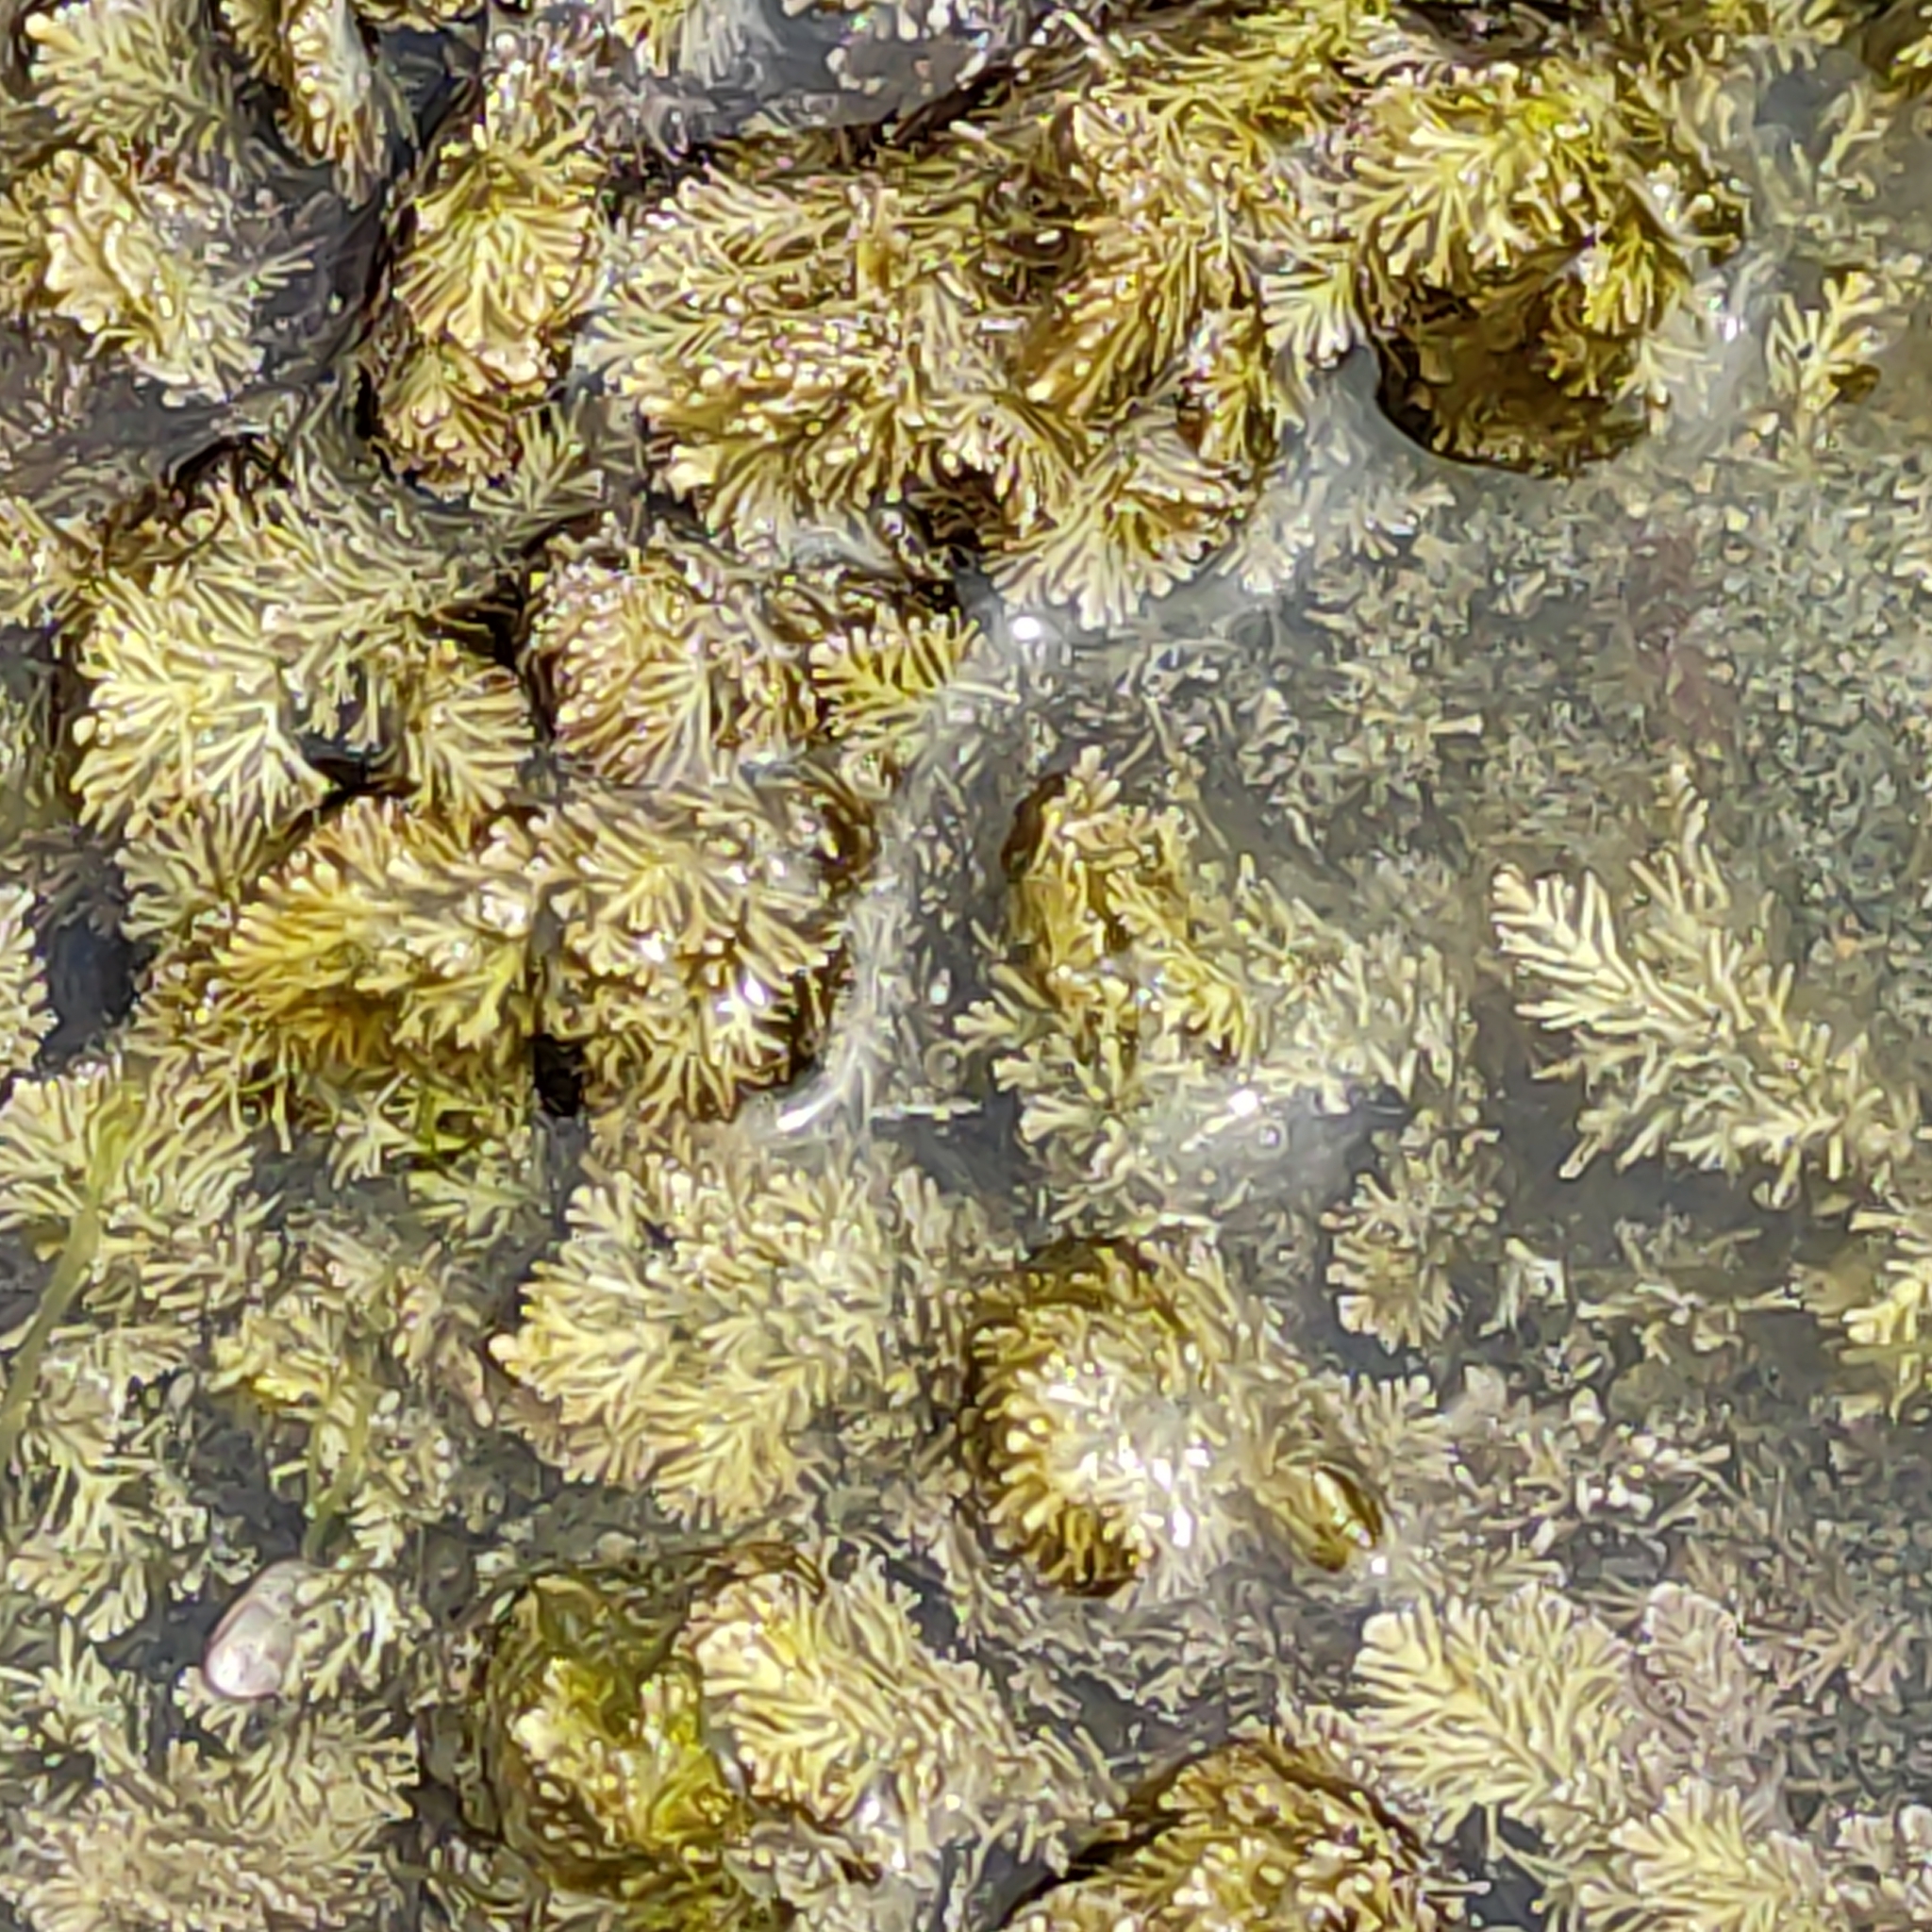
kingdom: Plantae
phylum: Rhodophyta
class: Florideophyceae
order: Corallinales
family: Corallinaceae
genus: Corallina
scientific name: Corallina officinalis
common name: Coral weed
